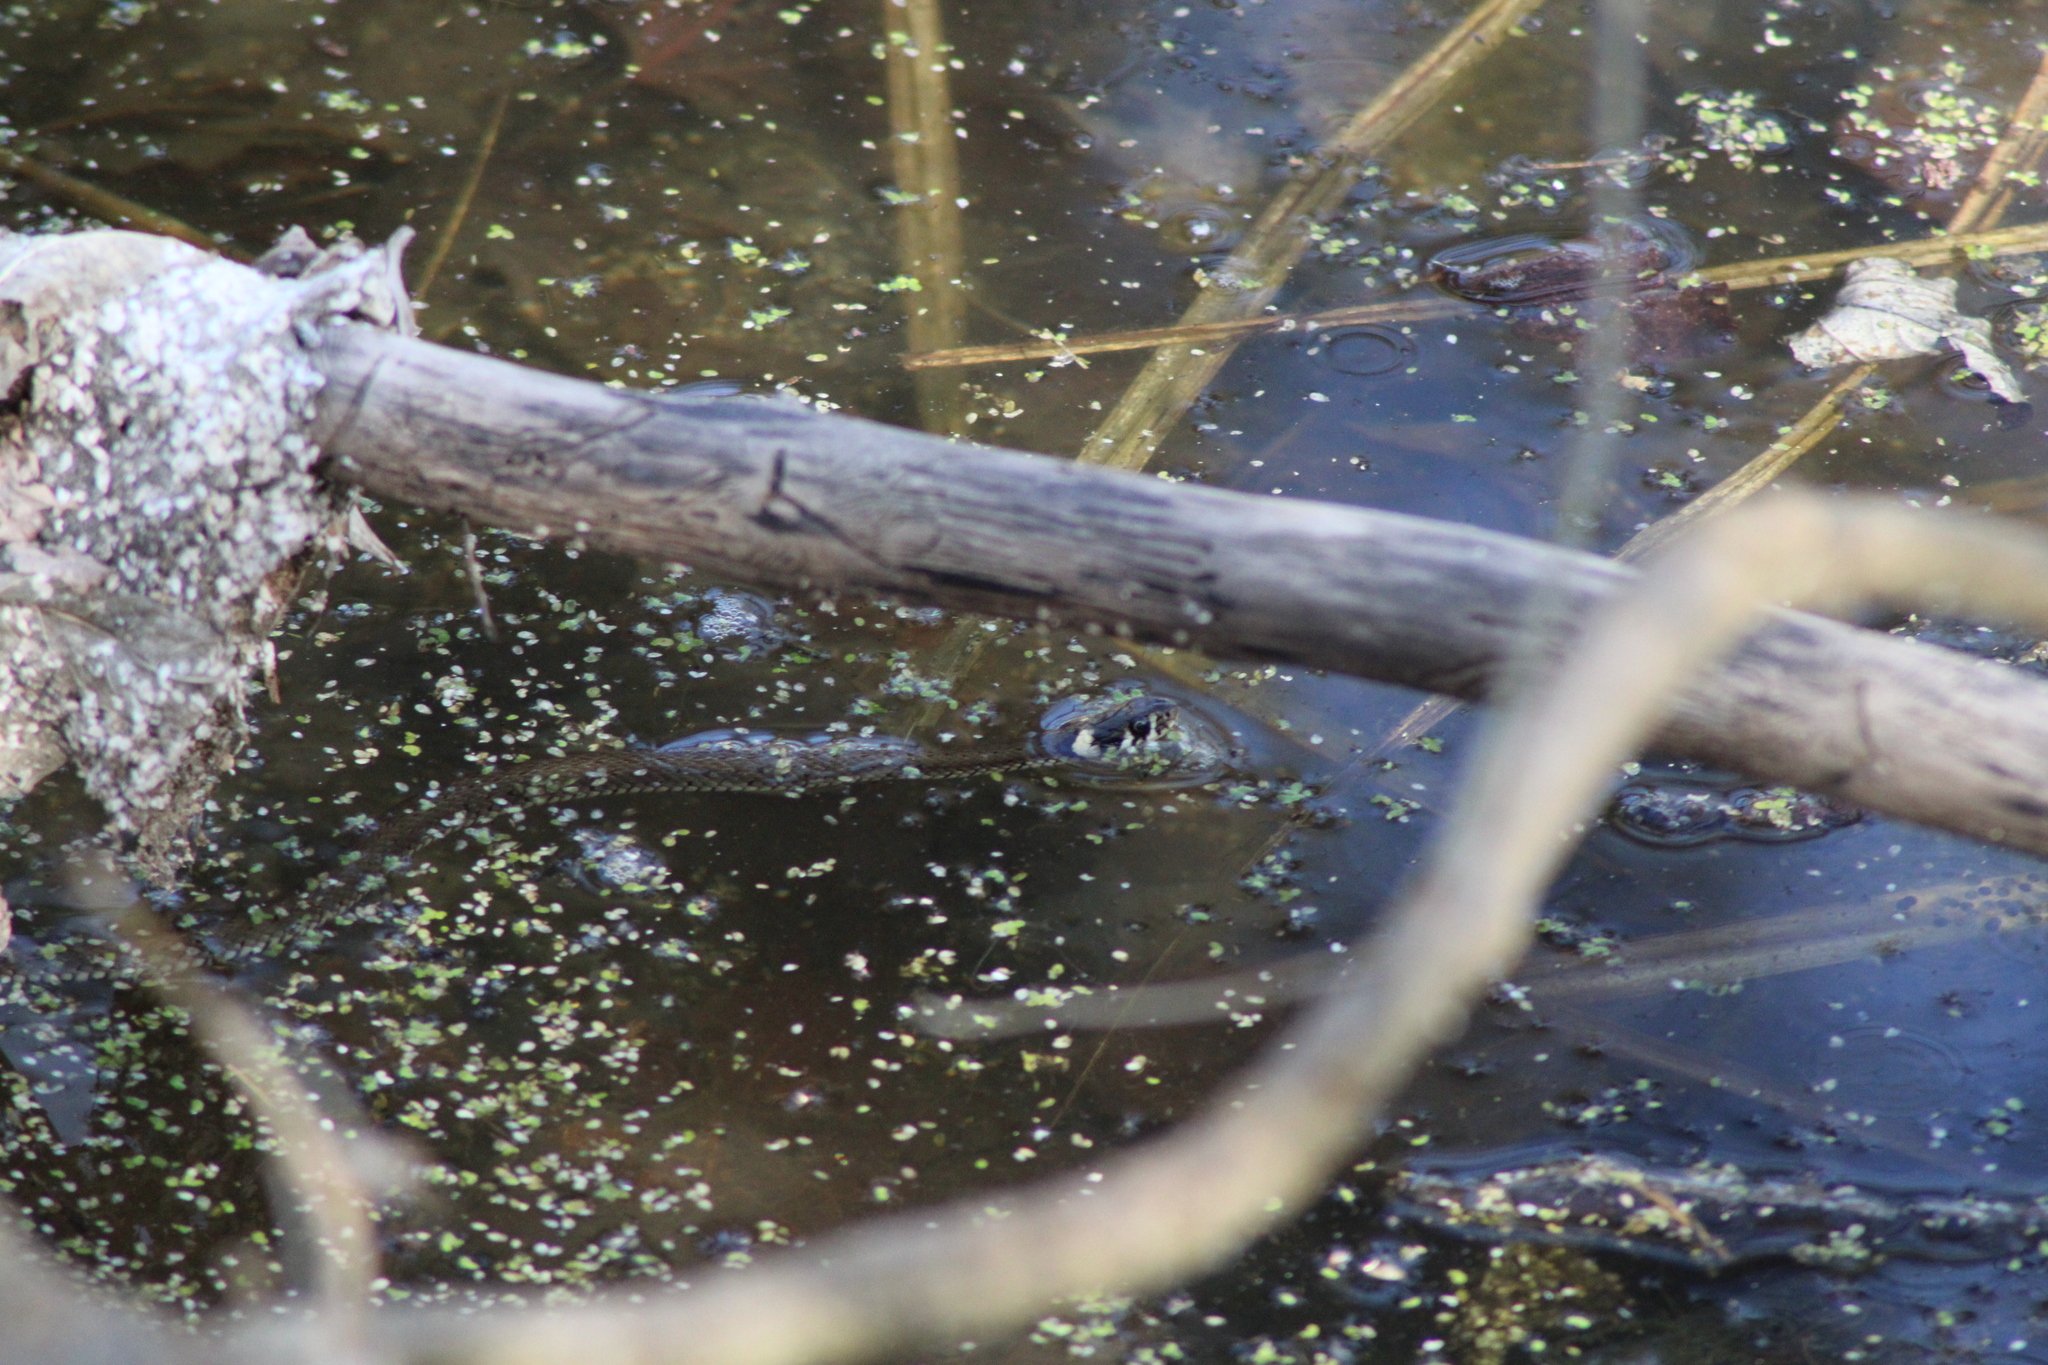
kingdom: Animalia
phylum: Chordata
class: Squamata
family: Colubridae
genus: Natrix
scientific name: Natrix natrix
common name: Grass snake
